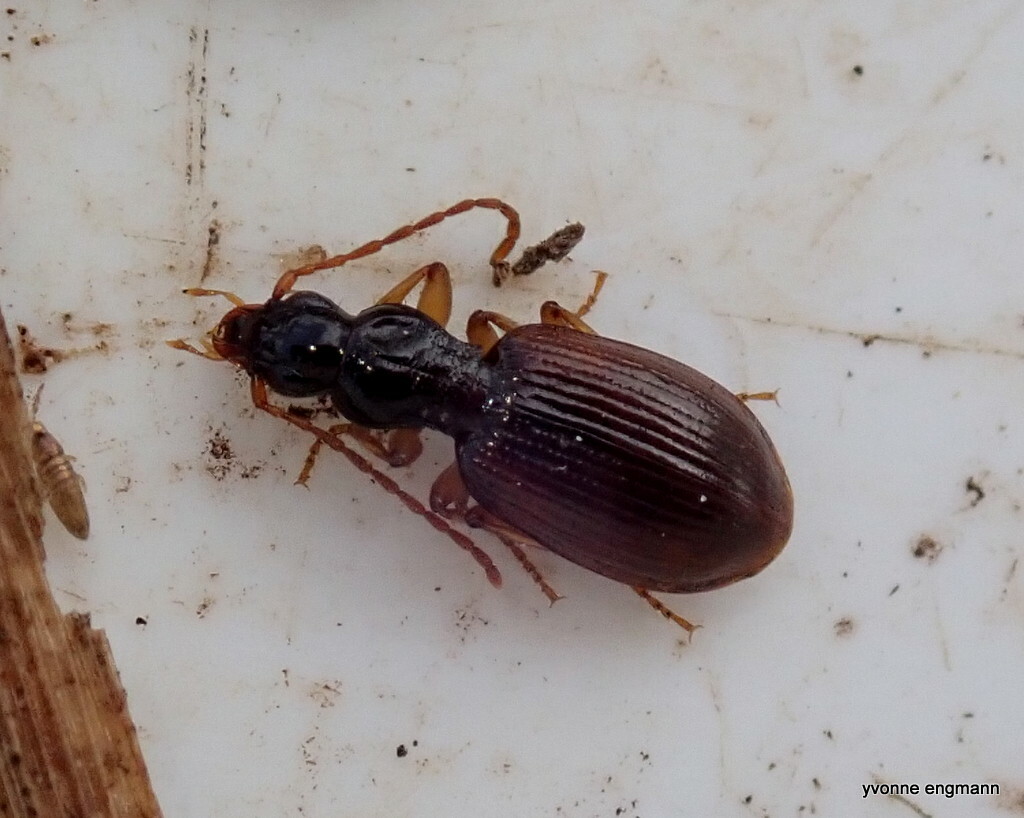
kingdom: Animalia
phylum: Arthropoda
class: Insecta
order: Coleoptera
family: Carabidae
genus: Oxypselaphus
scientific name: Oxypselaphus obscurus
